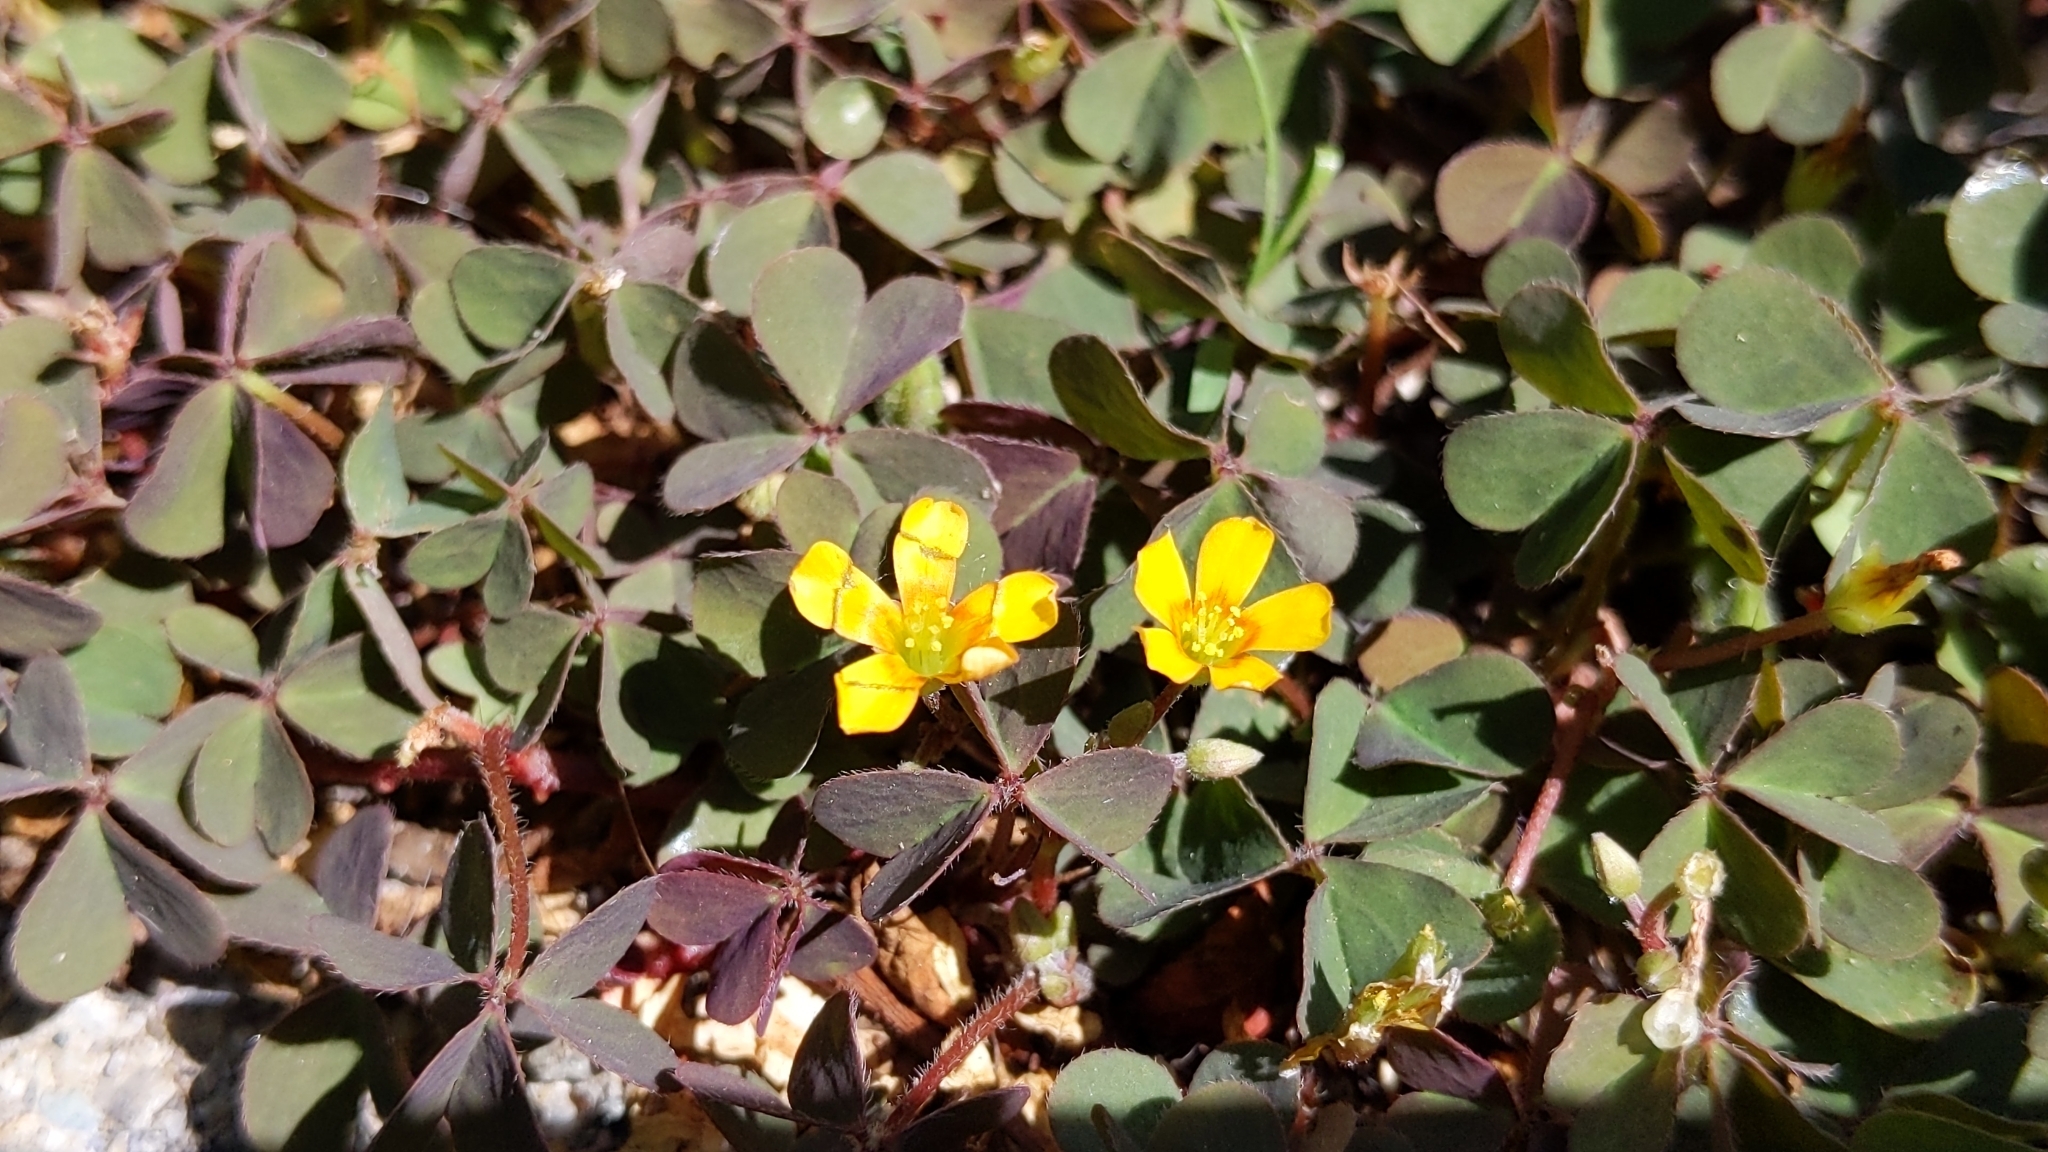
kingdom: Plantae
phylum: Tracheophyta
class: Magnoliopsida
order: Oxalidales
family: Oxalidaceae
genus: Oxalis
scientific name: Oxalis corniculata
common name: Procumbent yellow-sorrel
